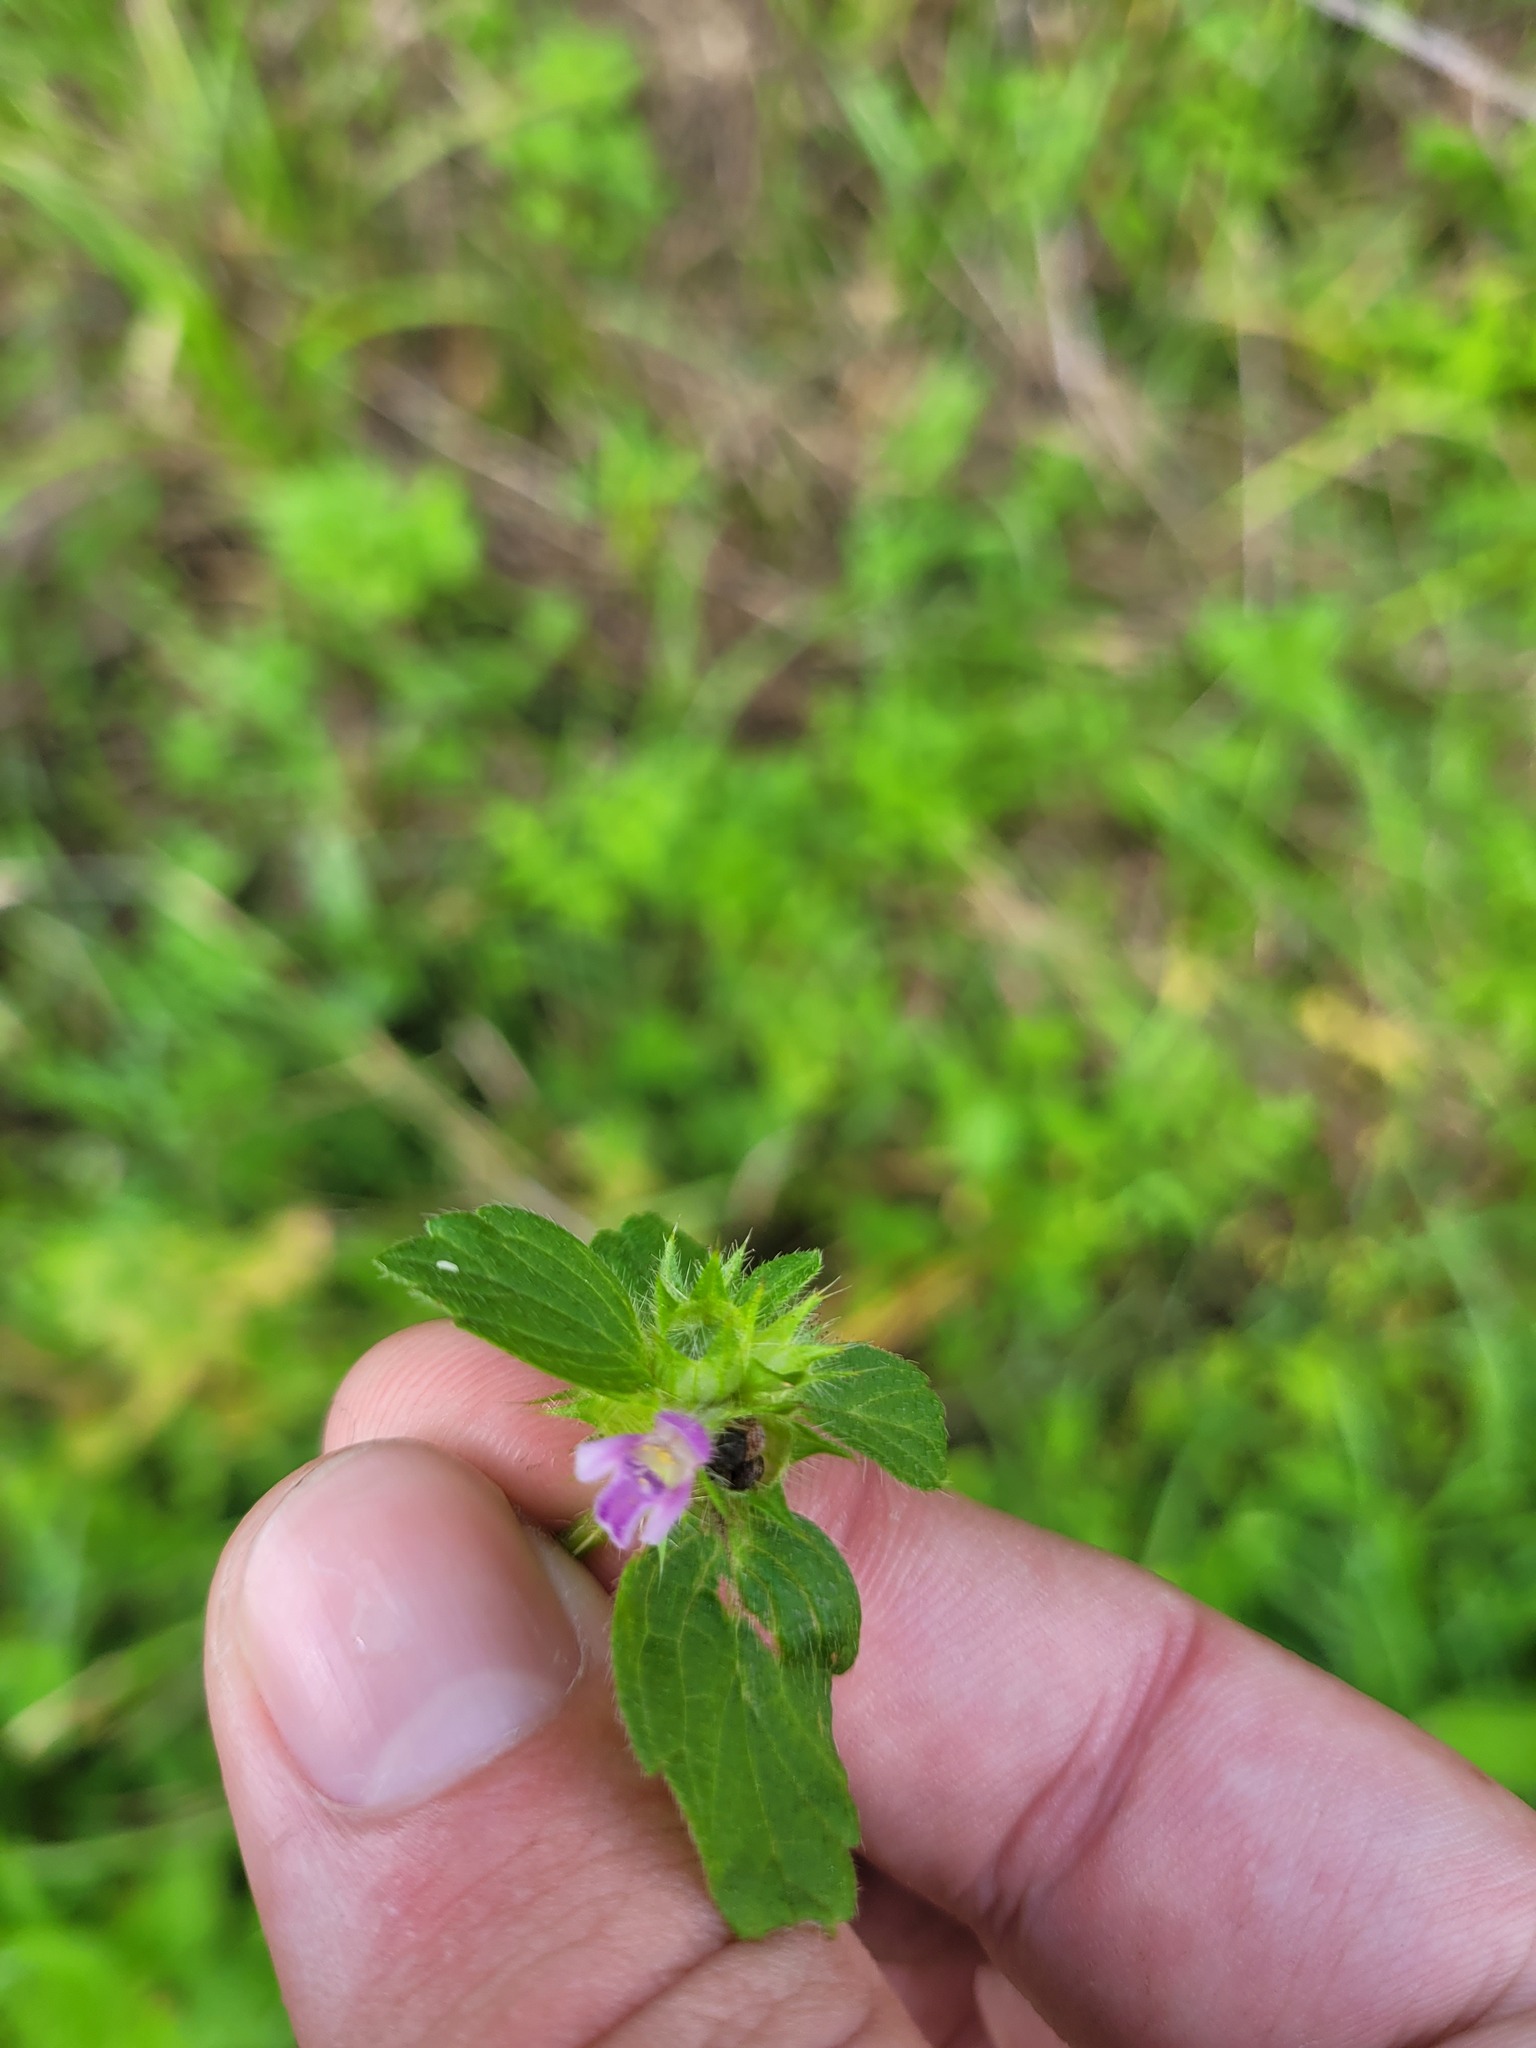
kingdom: Plantae
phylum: Tracheophyta
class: Magnoliopsida
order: Lamiales
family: Lamiaceae
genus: Galeopsis
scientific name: Galeopsis bifida
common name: Bifid hemp-nettle
